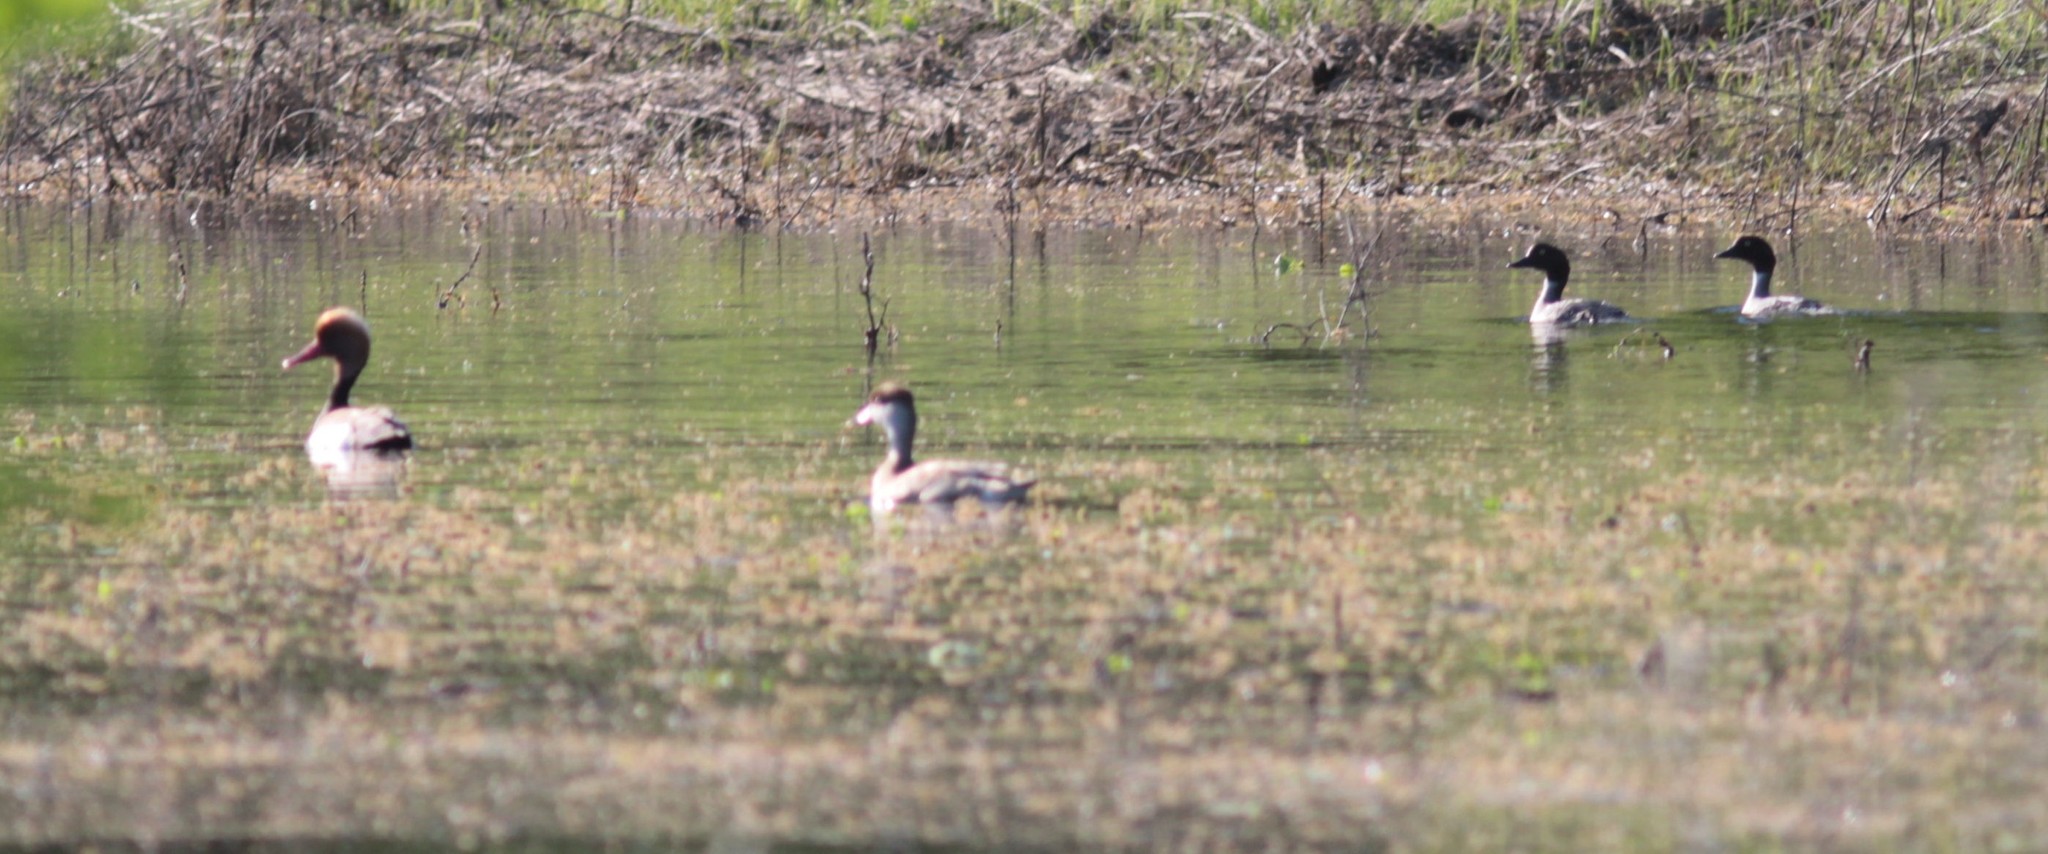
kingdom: Animalia
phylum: Chordata
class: Aves
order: Anseriformes
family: Anatidae
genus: Bucephala
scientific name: Bucephala clangula
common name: Common goldeneye
